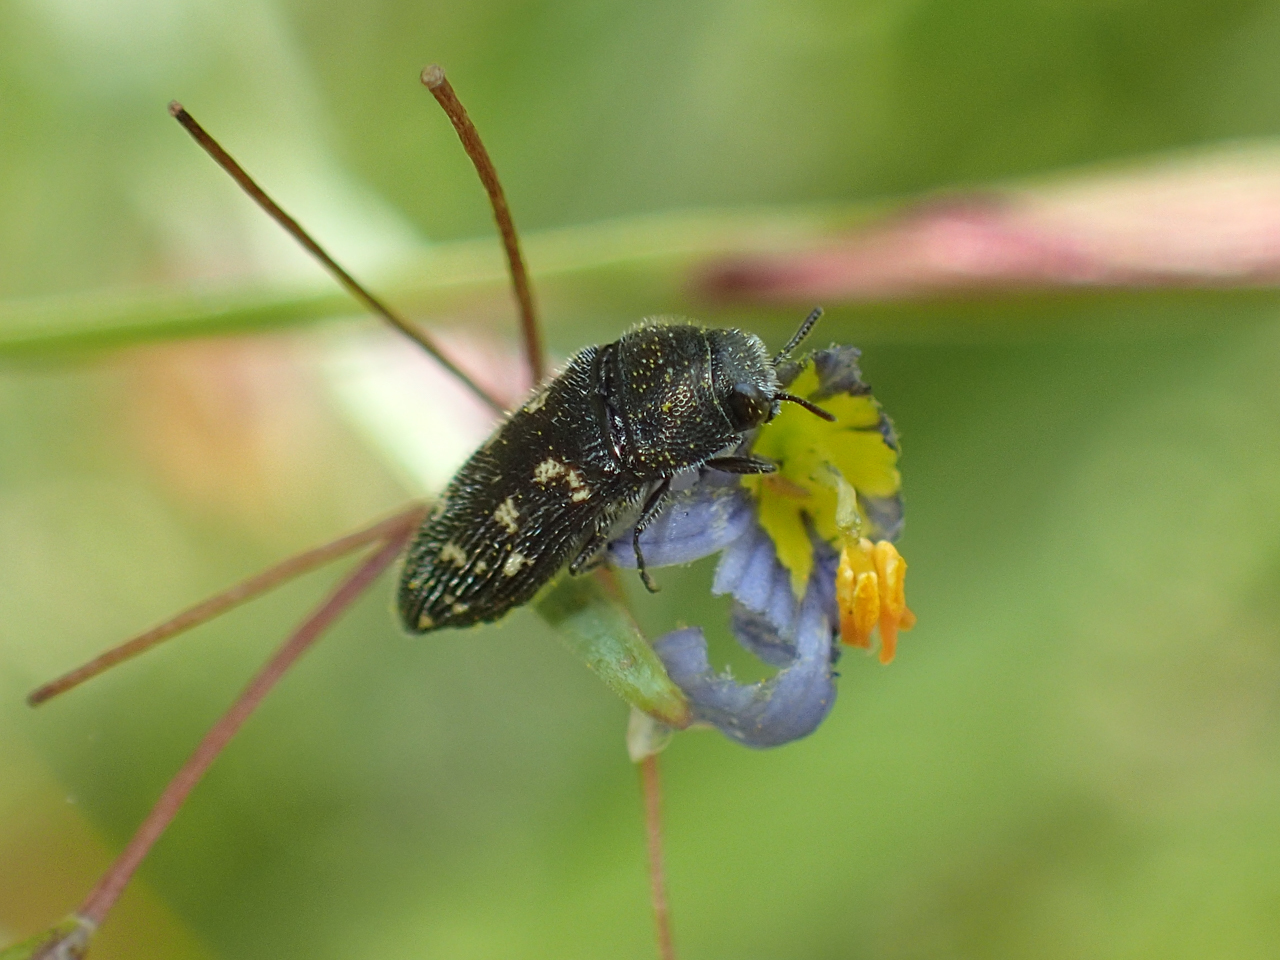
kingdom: Animalia
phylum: Arthropoda
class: Insecta
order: Coleoptera
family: Buprestidae
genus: Acmaeodera
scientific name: Acmaeodera tubulus
